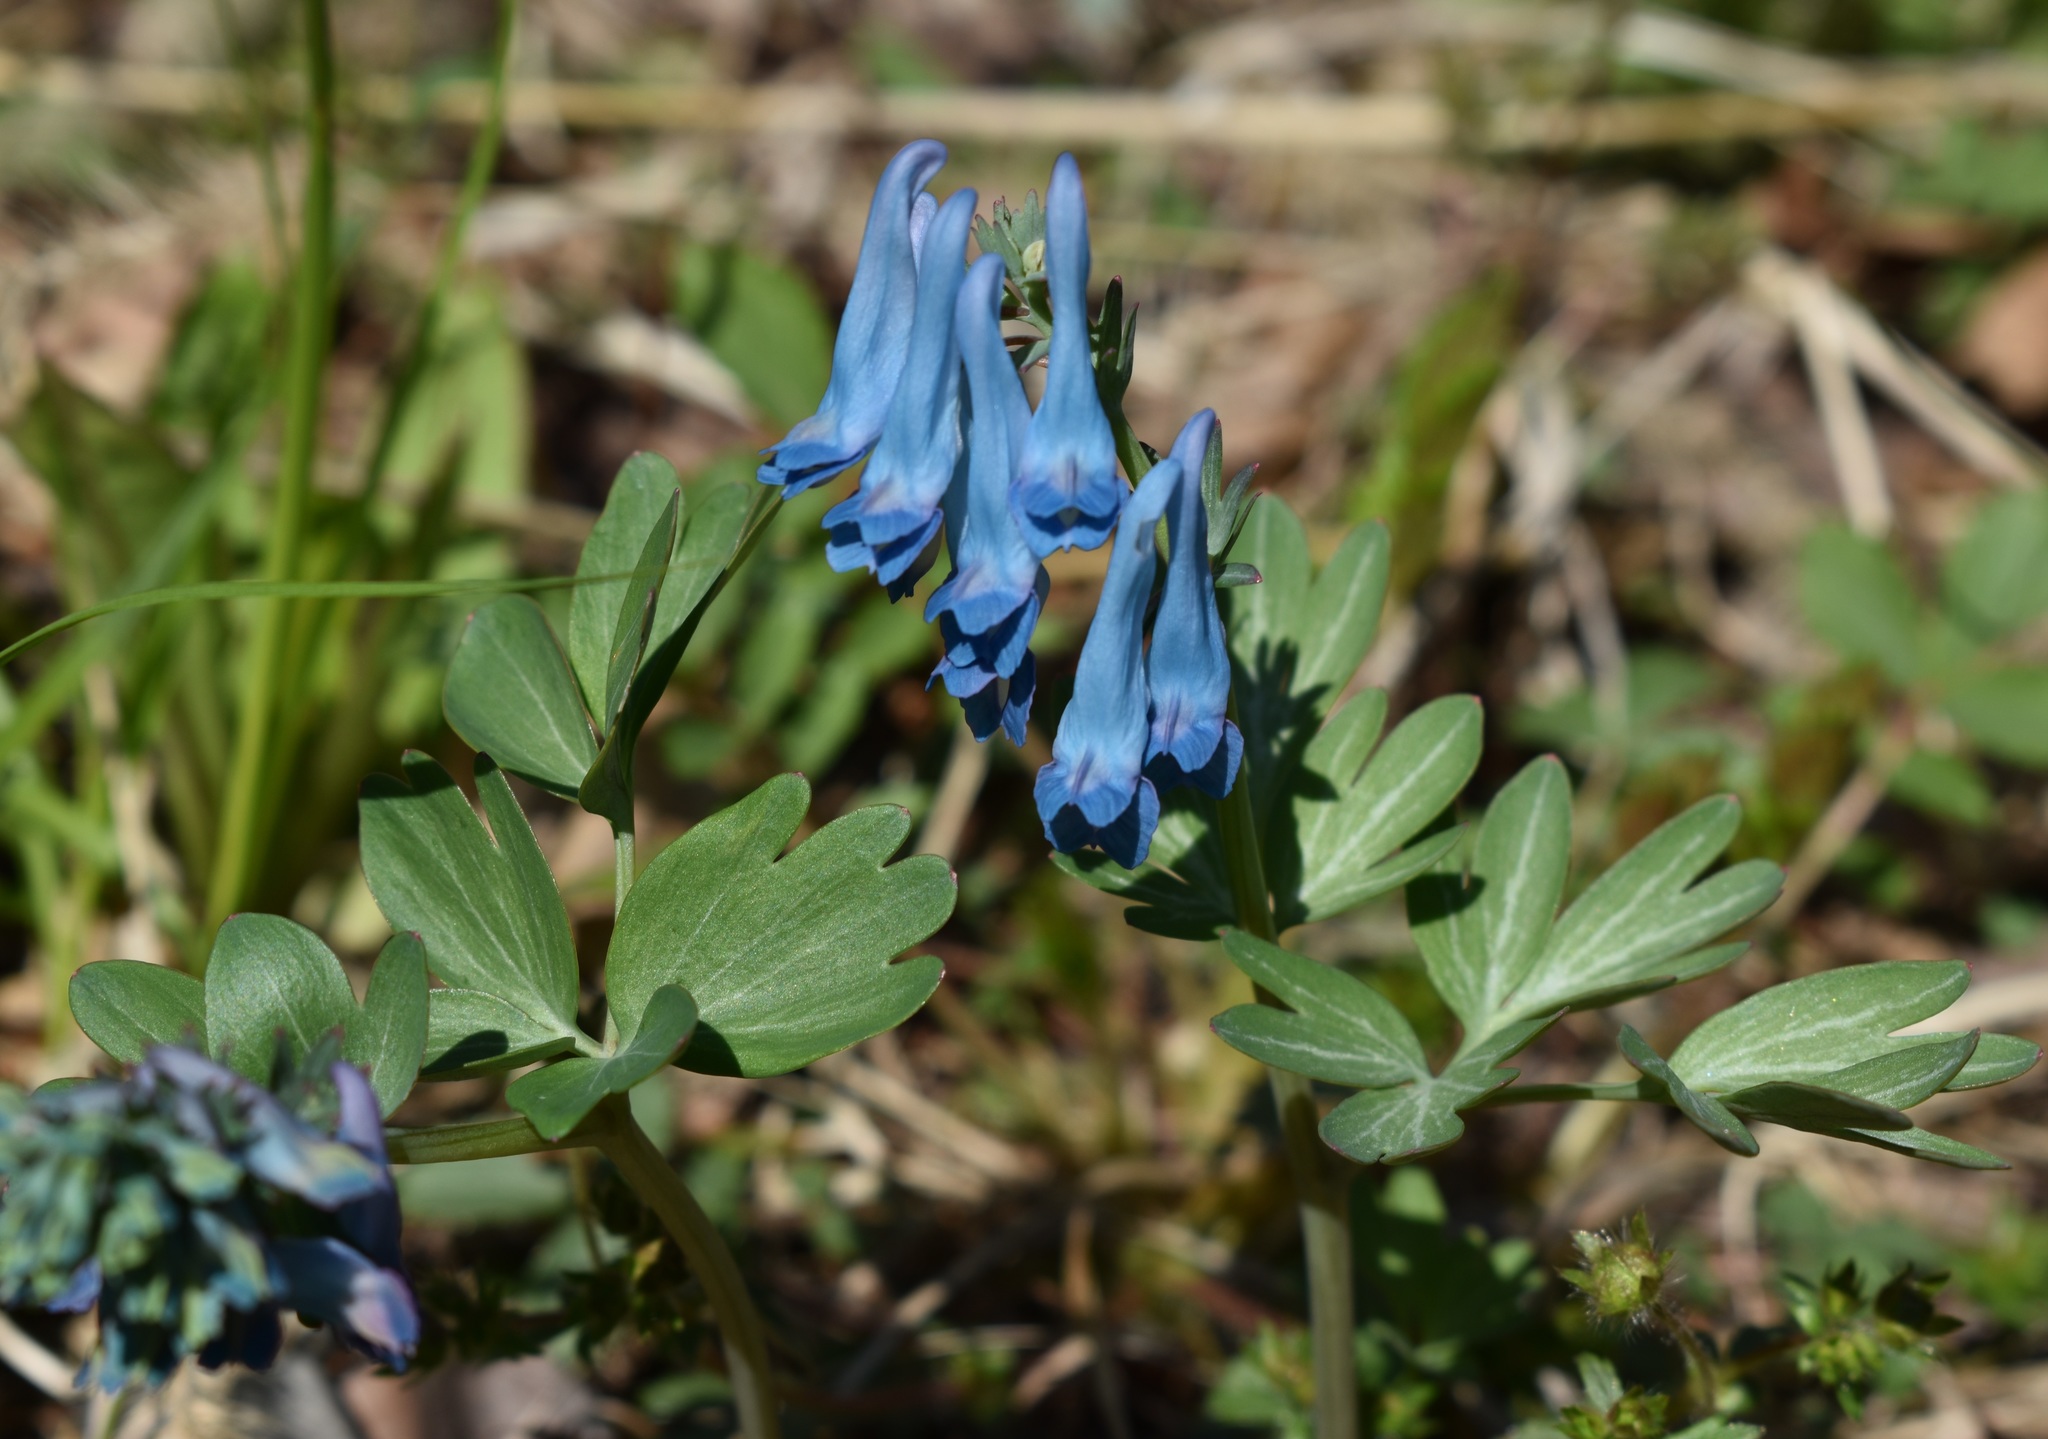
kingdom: Plantae
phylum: Tracheophyta
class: Magnoliopsida
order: Ranunculales
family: Papaveraceae
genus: Corydalis
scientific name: Corydalis turtschaninovii
